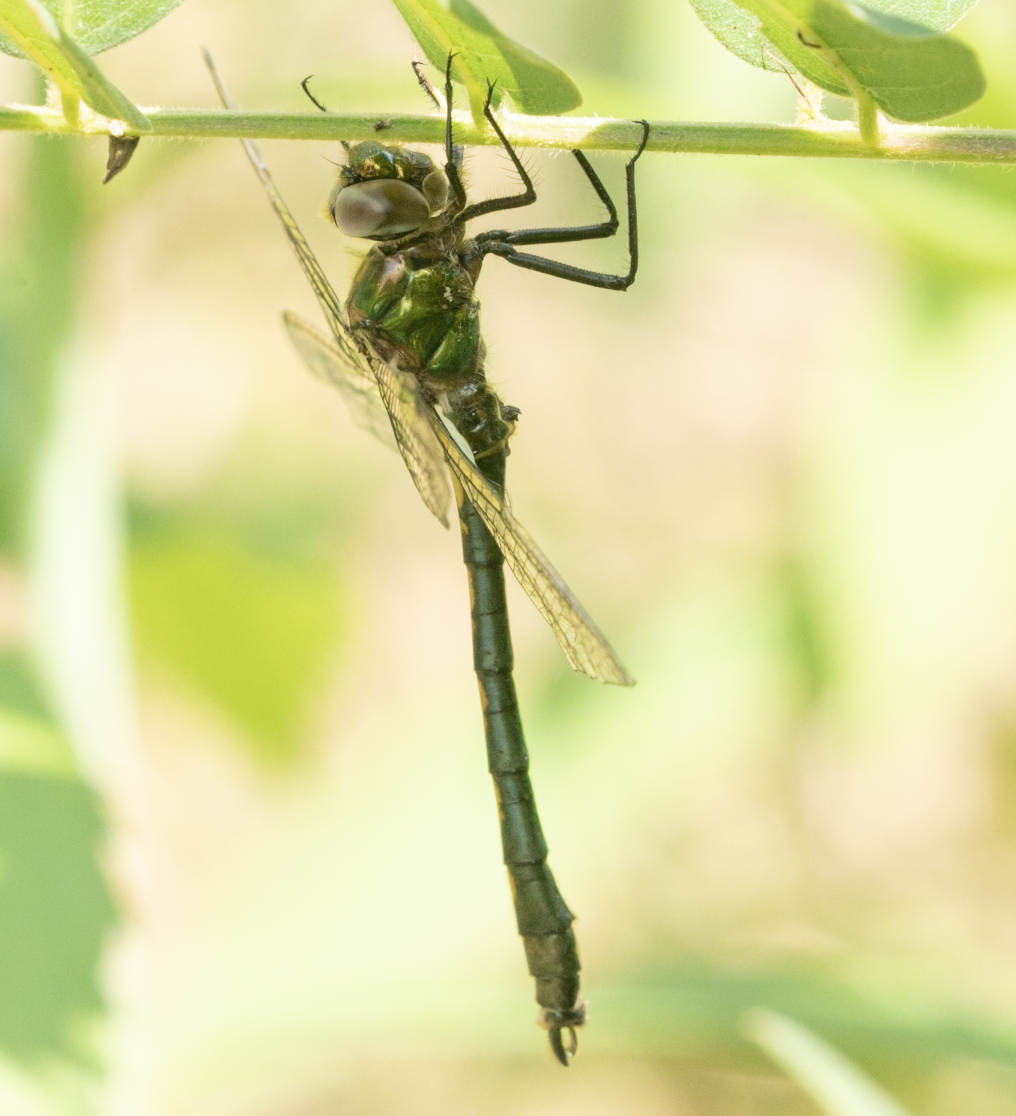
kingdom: Animalia
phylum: Arthropoda
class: Insecta
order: Odonata
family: Corduliidae
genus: Oxygastra
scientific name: Oxygastra curtisii
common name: Orange-spotted emerald
